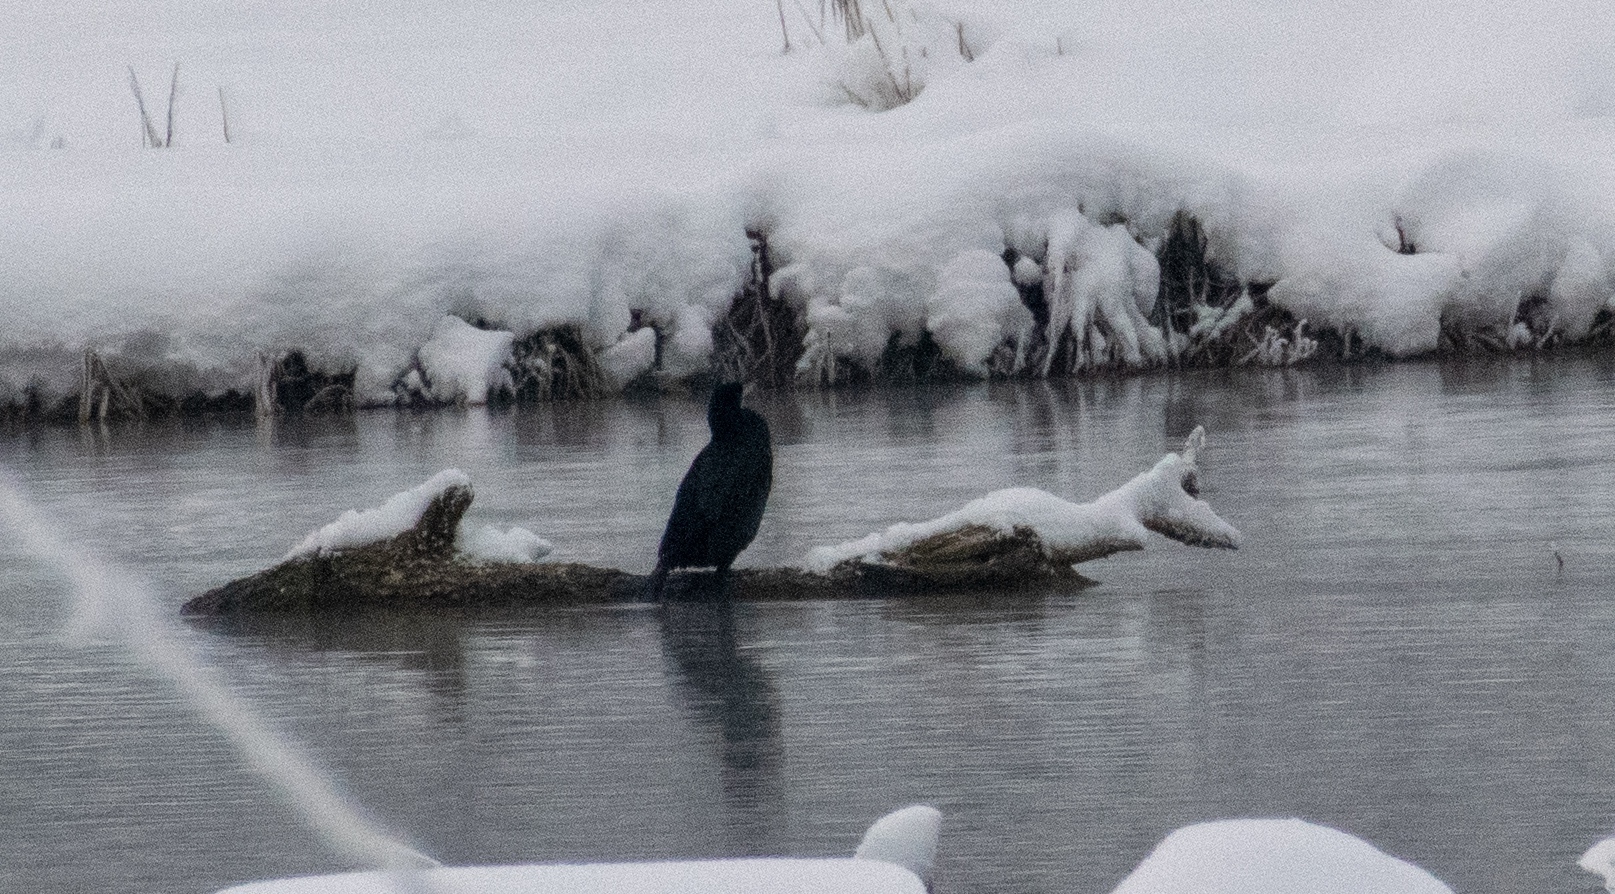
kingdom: Animalia
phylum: Chordata
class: Aves
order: Suliformes
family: Phalacrocoracidae
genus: Phalacrocorax
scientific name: Phalacrocorax carbo
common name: Great cormorant
